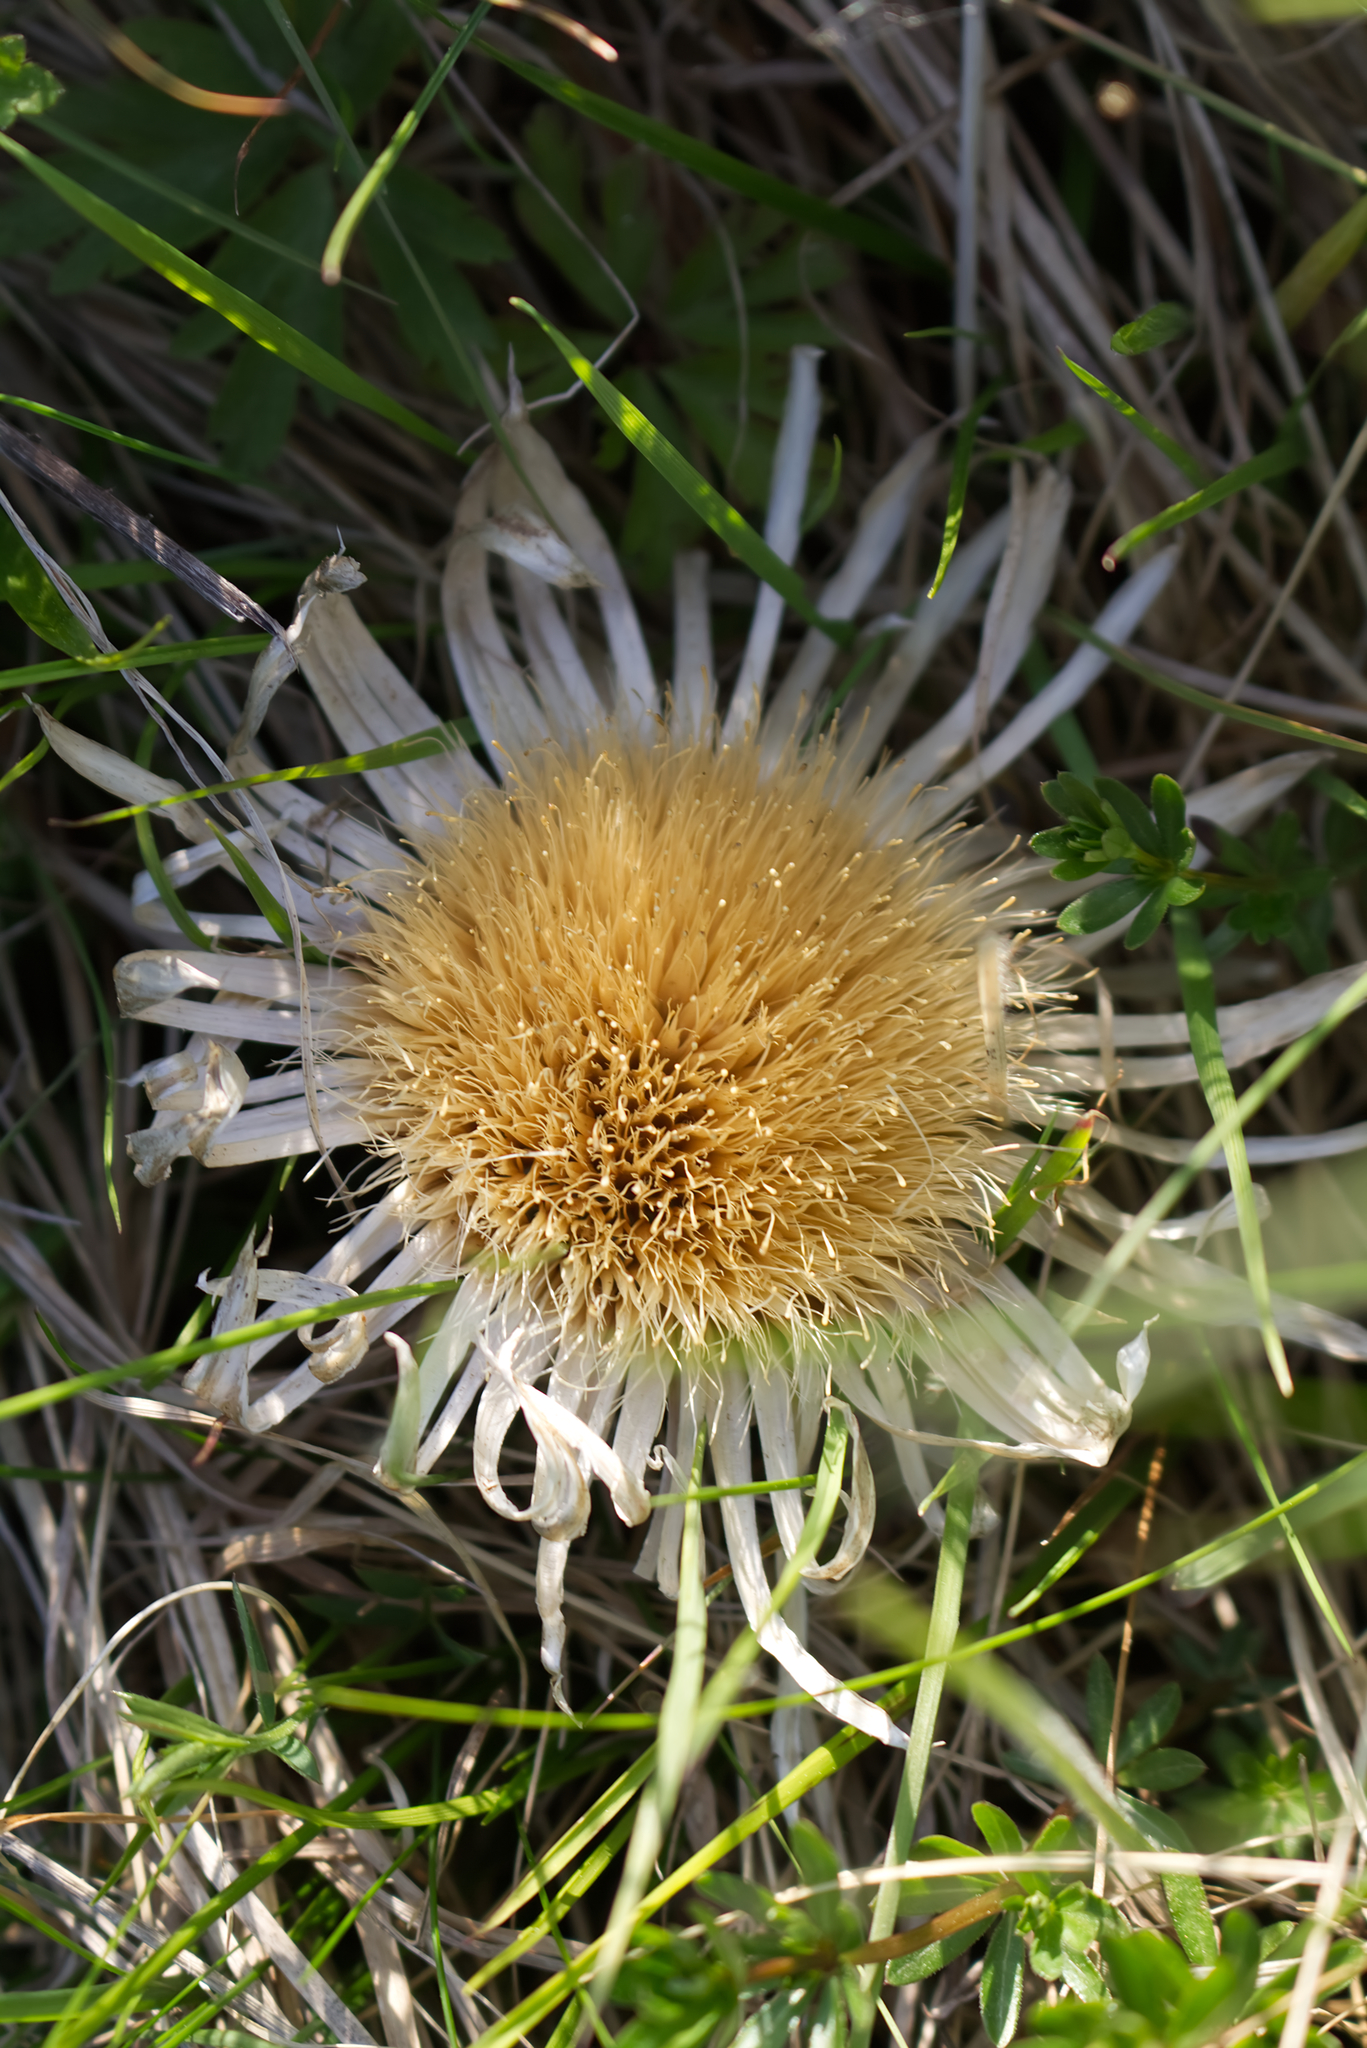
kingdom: Plantae
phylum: Tracheophyta
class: Magnoliopsida
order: Asterales
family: Asteraceae
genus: Carlina
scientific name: Carlina acaulis
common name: Stemless carline thistle
